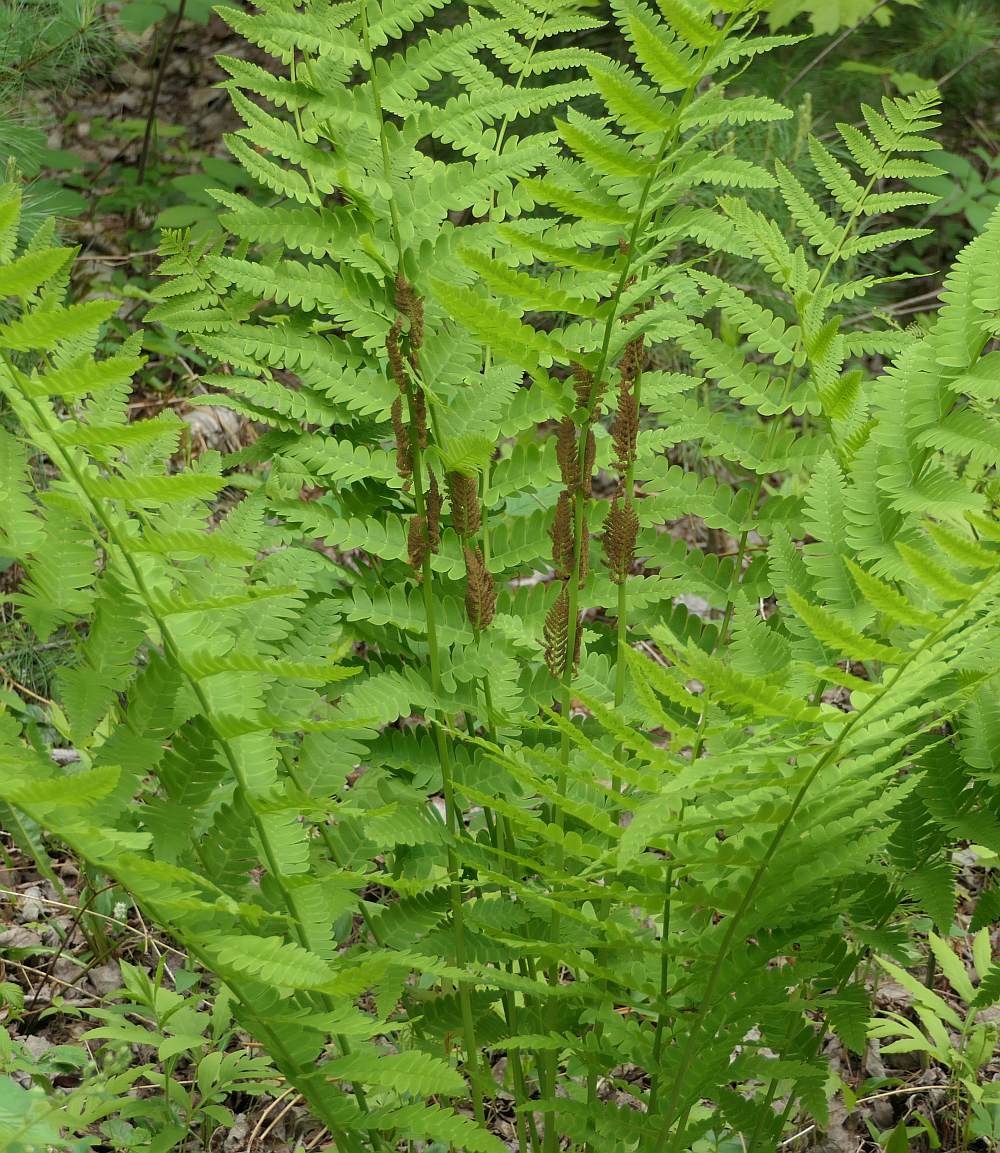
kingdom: Plantae
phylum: Tracheophyta
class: Polypodiopsida
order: Osmundales
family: Osmundaceae
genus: Claytosmunda
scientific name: Claytosmunda claytoniana
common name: Clayton's fern
